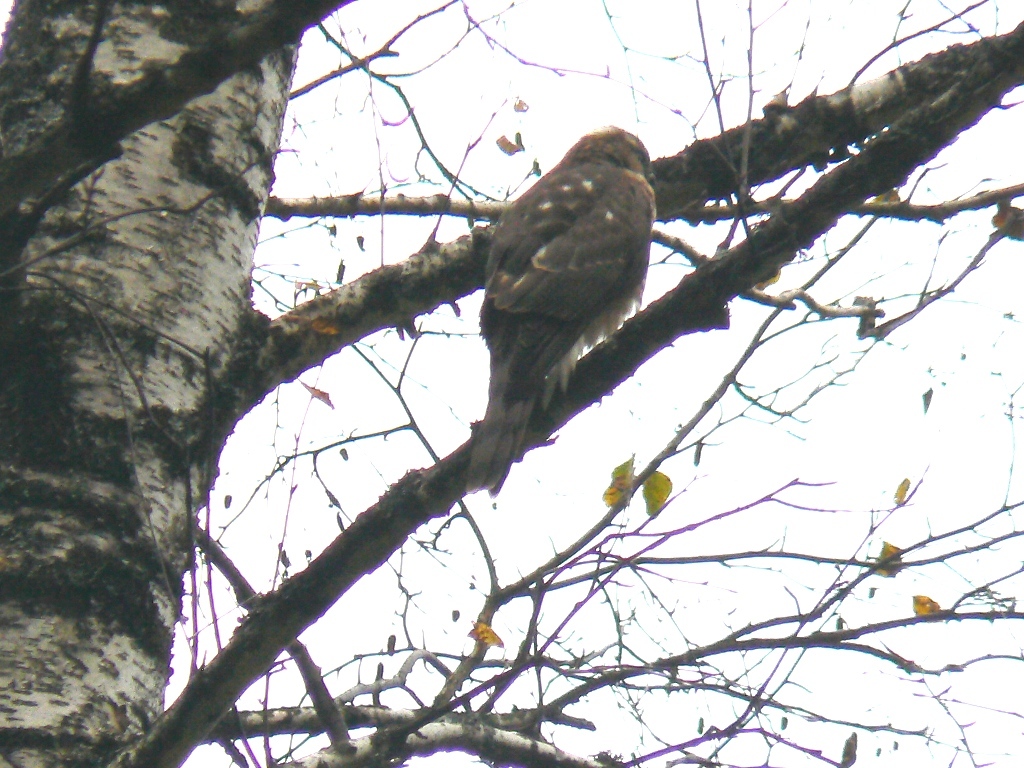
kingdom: Animalia
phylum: Chordata
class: Aves
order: Accipitriformes
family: Accipitridae
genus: Accipiter
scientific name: Accipiter nisus
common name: Eurasian sparrowhawk
